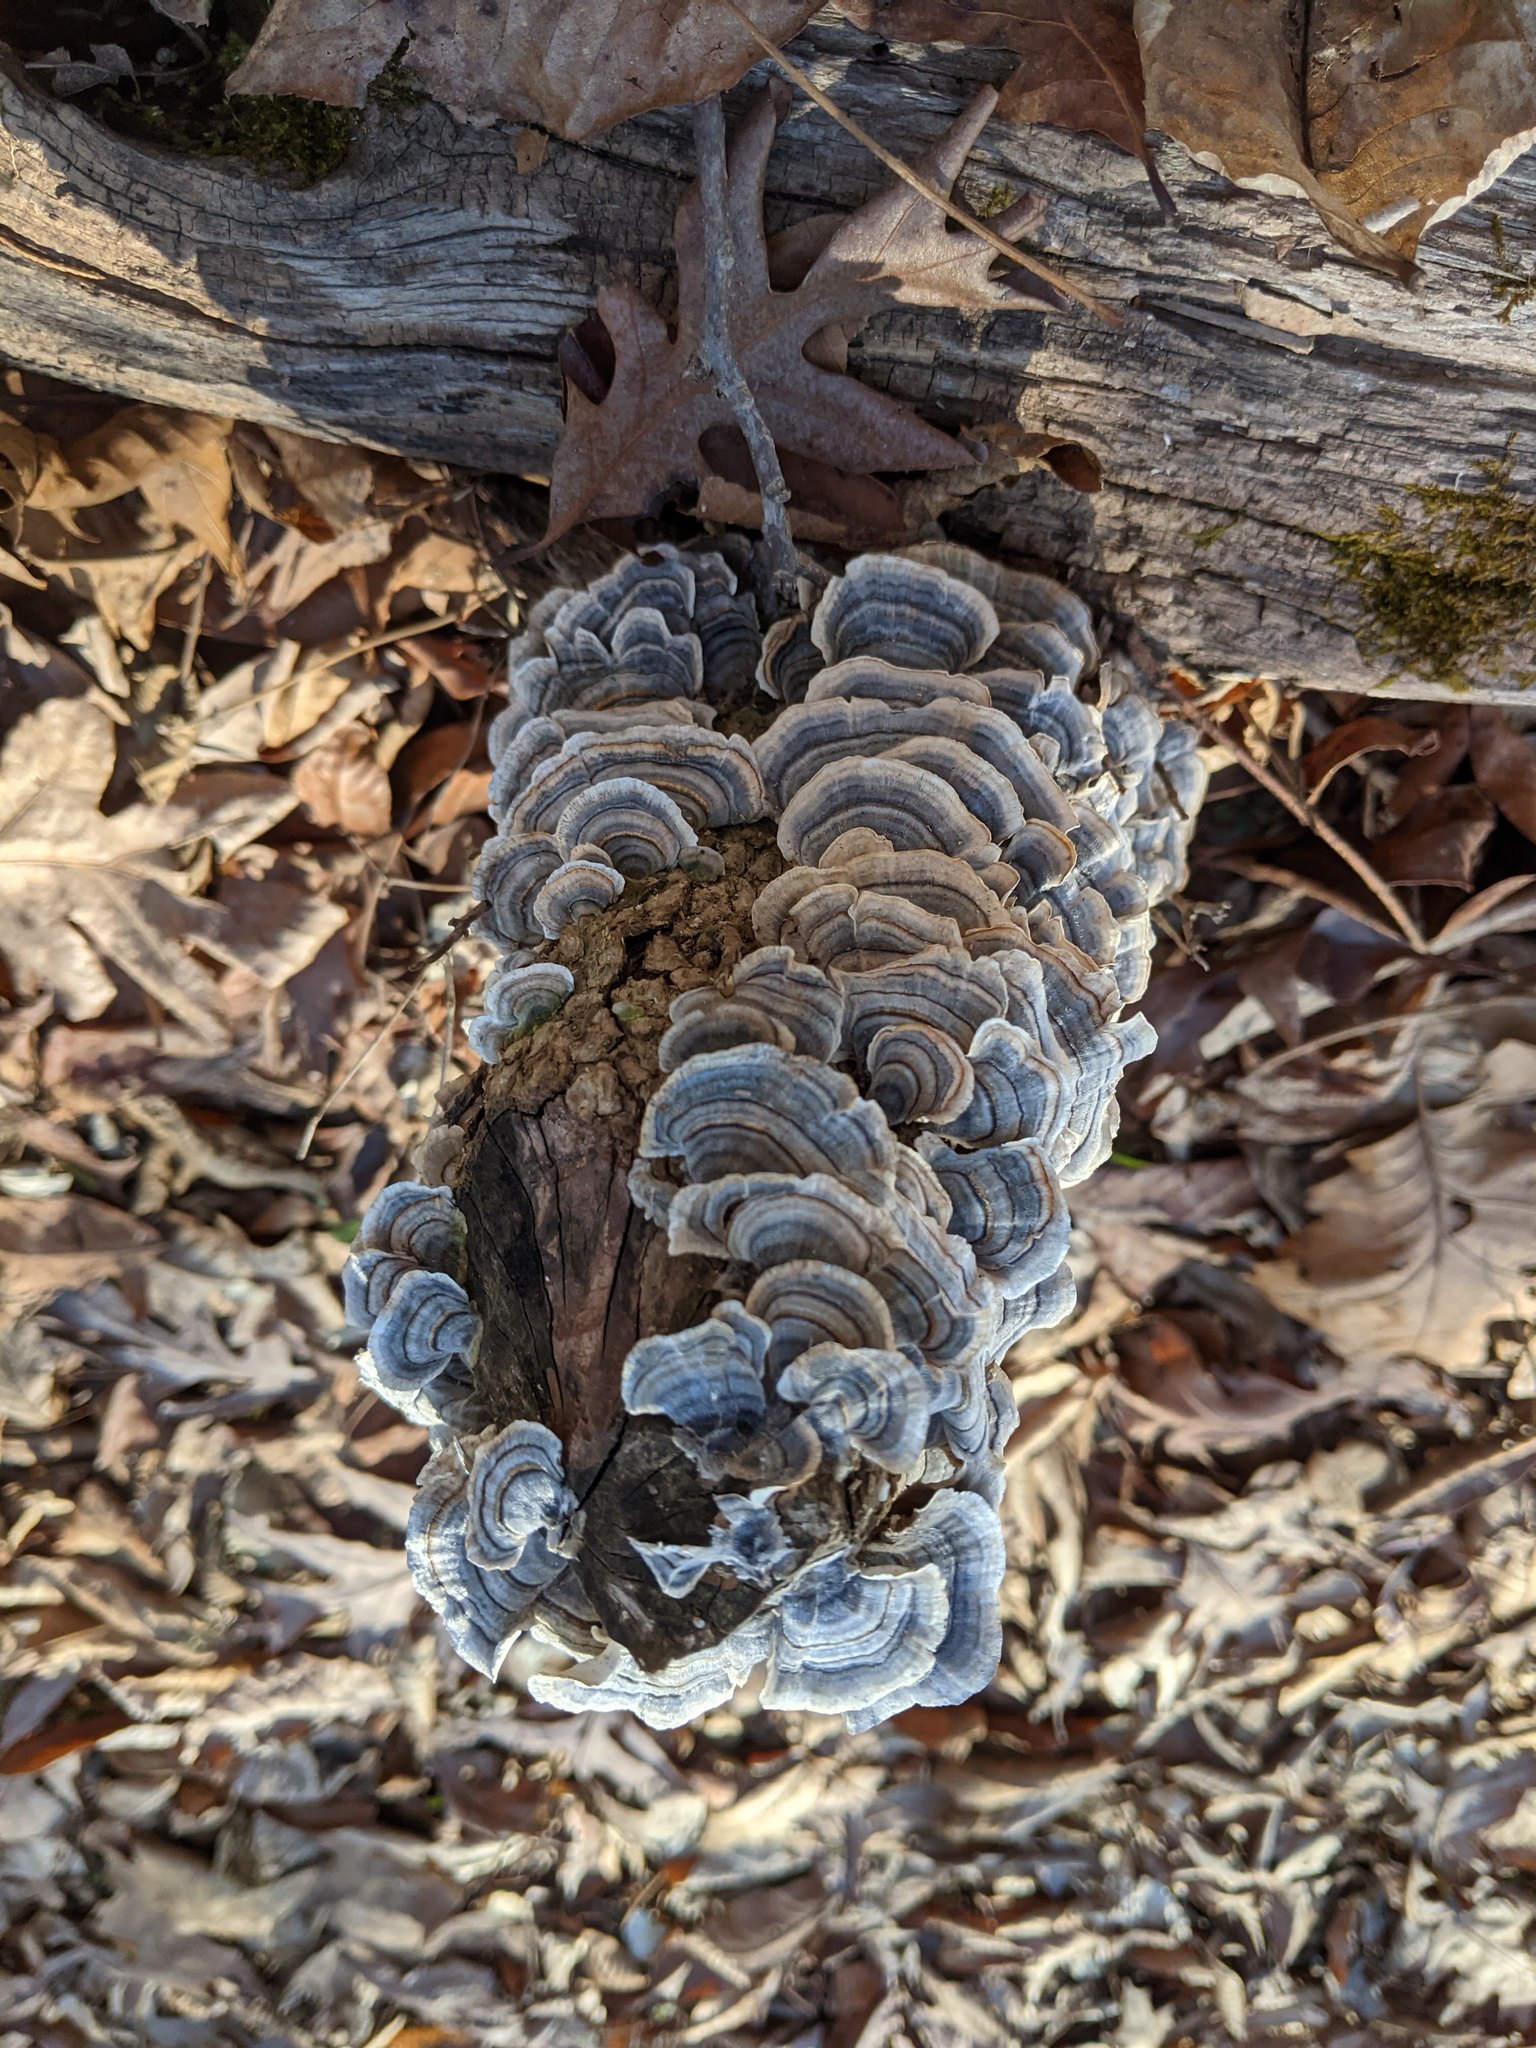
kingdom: Fungi
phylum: Basidiomycota
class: Agaricomycetes
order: Polyporales
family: Polyporaceae
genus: Trametes
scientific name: Trametes versicolor
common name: Turkeytail
